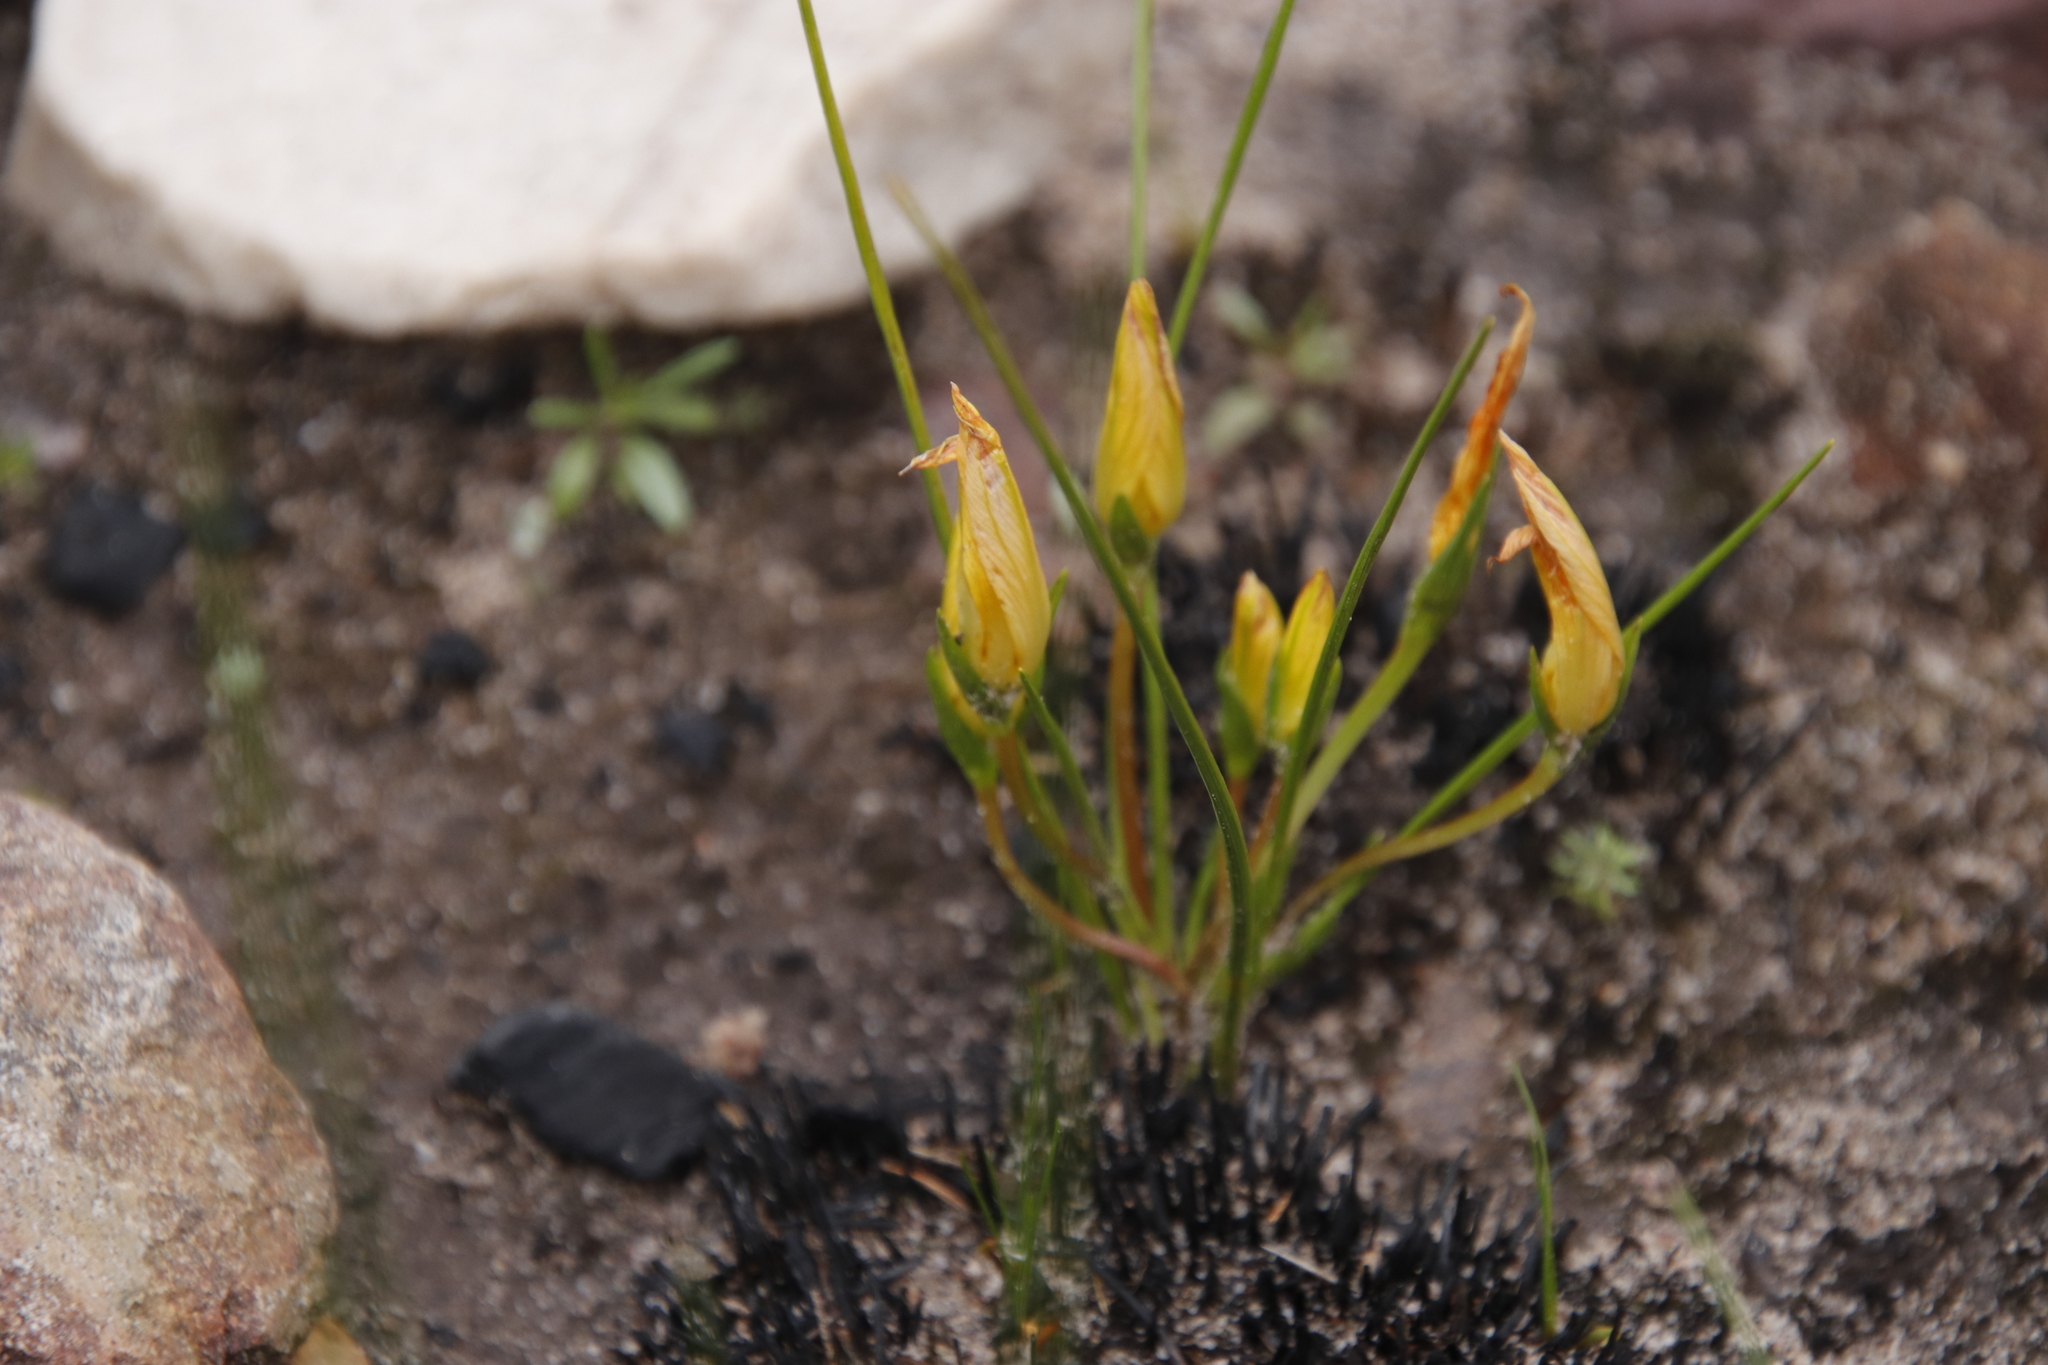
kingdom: Plantae
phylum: Tracheophyta
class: Liliopsida
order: Asparagales
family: Iridaceae
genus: Romulea
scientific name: Romulea hirsuta
